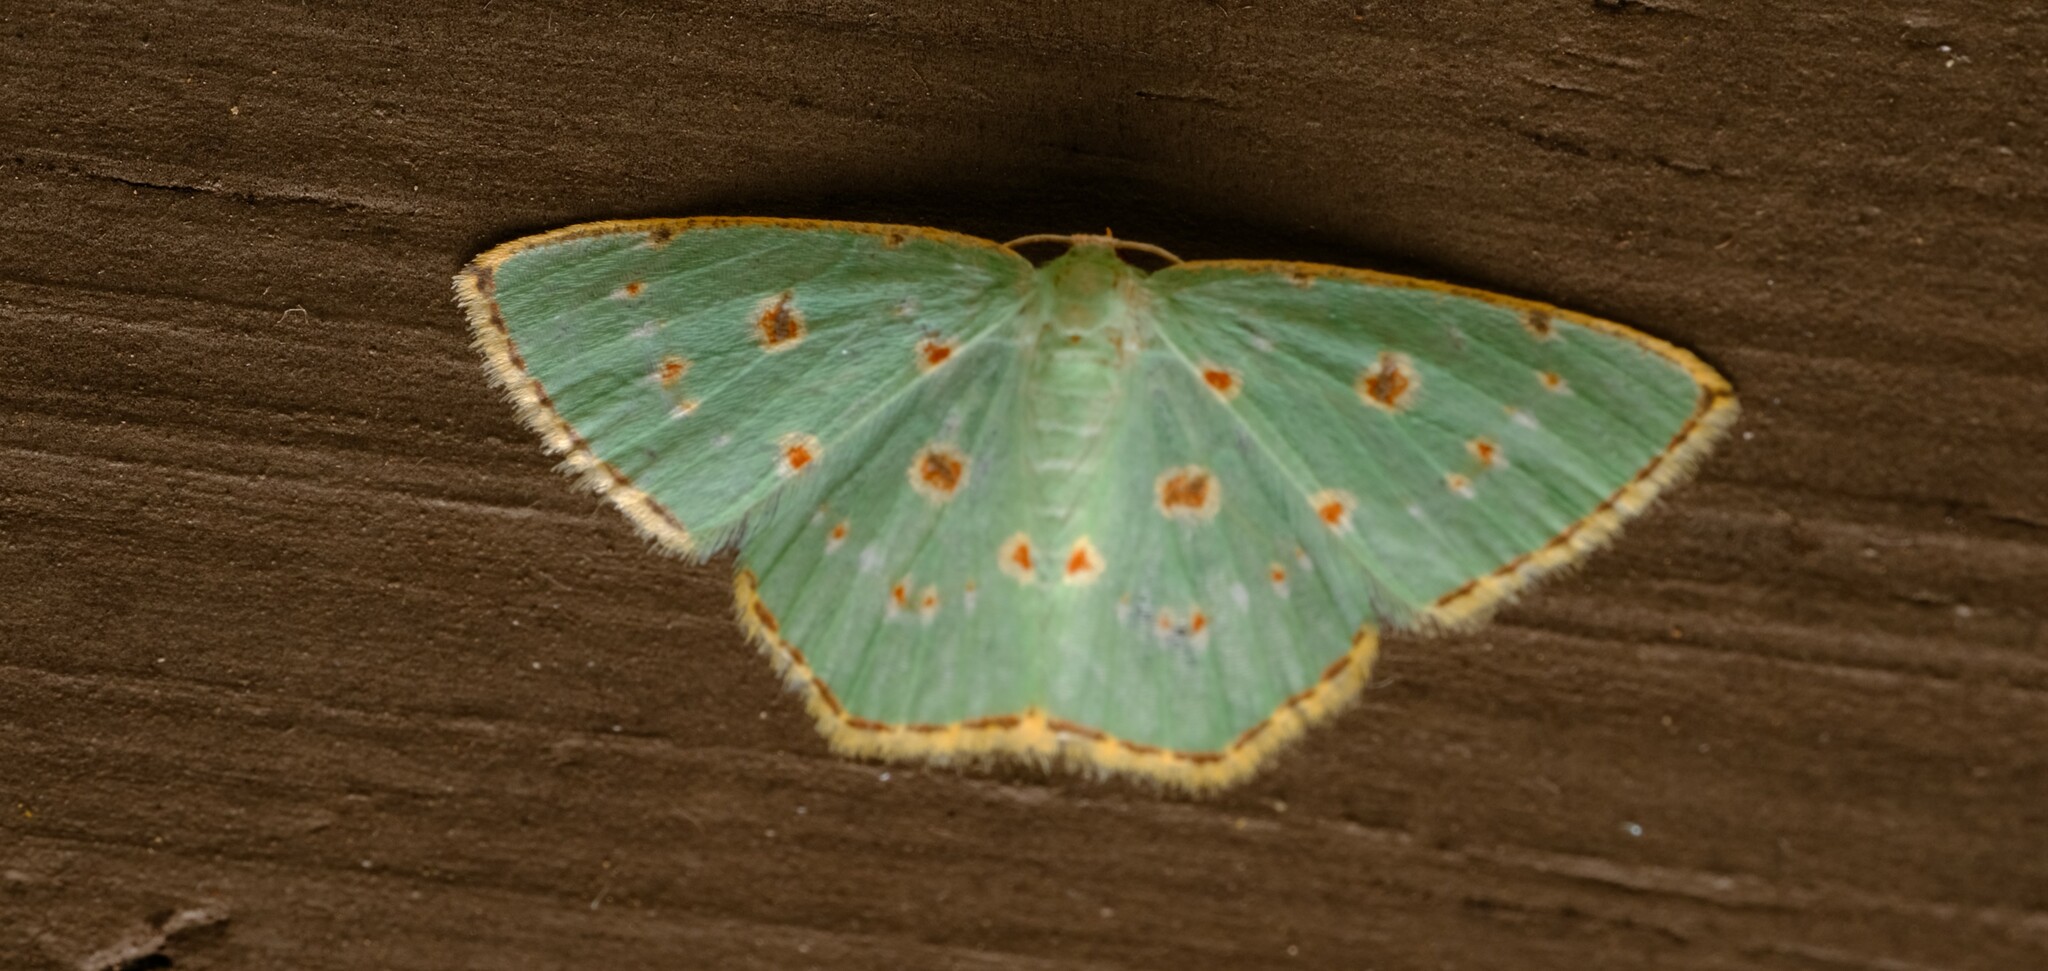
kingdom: Animalia
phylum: Arthropoda
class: Insecta
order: Lepidoptera
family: Geometridae
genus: Comostola
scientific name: Comostola laesaria
